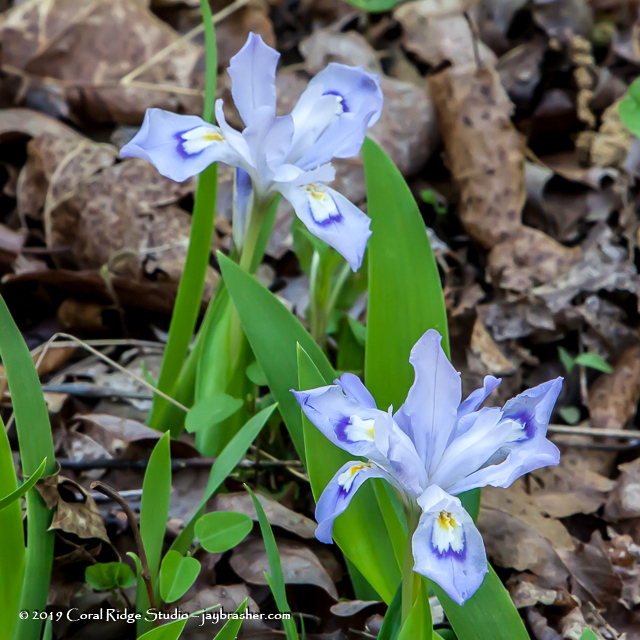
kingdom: Plantae
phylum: Tracheophyta
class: Liliopsida
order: Asparagales
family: Iridaceae
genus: Iris
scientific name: Iris cristata
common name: Crested iris
